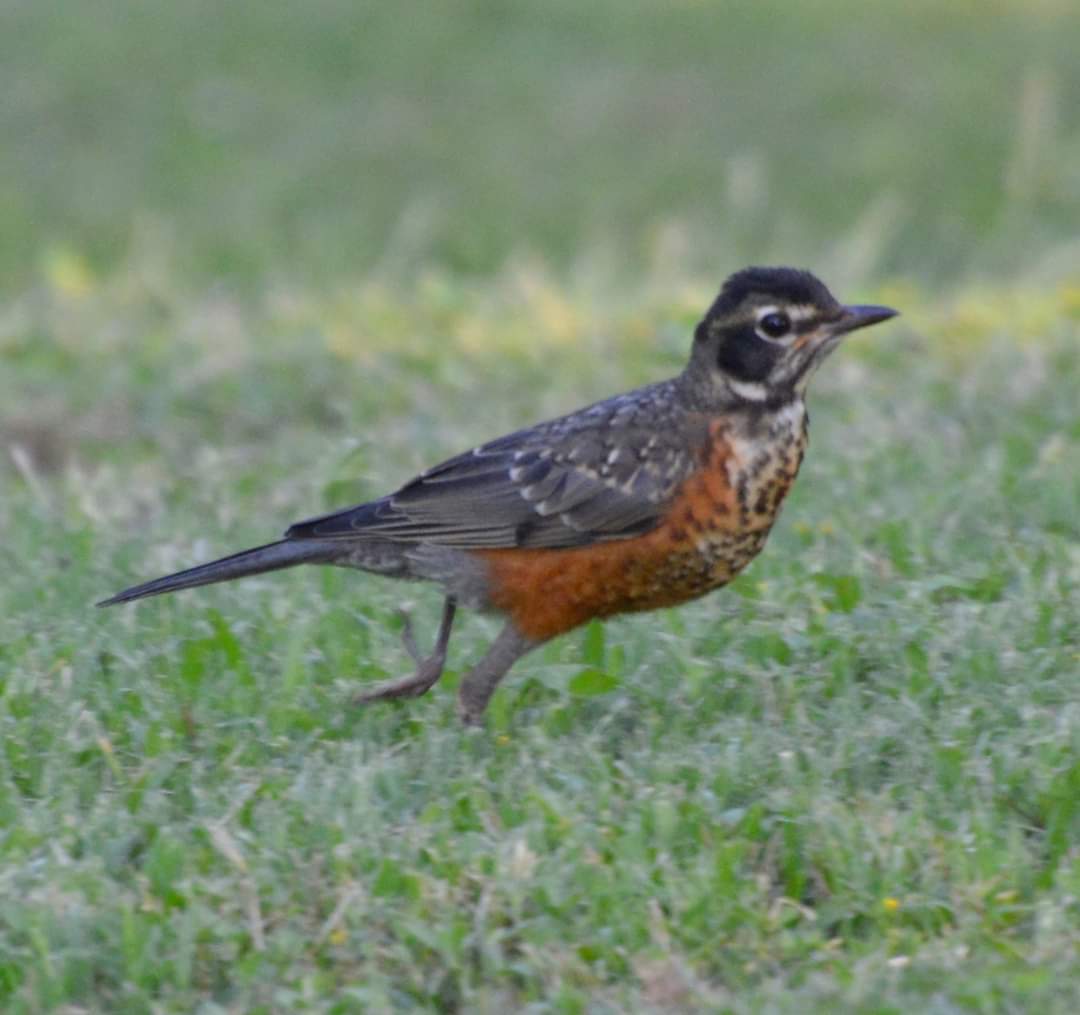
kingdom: Animalia
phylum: Chordata
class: Aves
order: Passeriformes
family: Turdidae
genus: Turdus
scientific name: Turdus migratorius
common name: American robin
